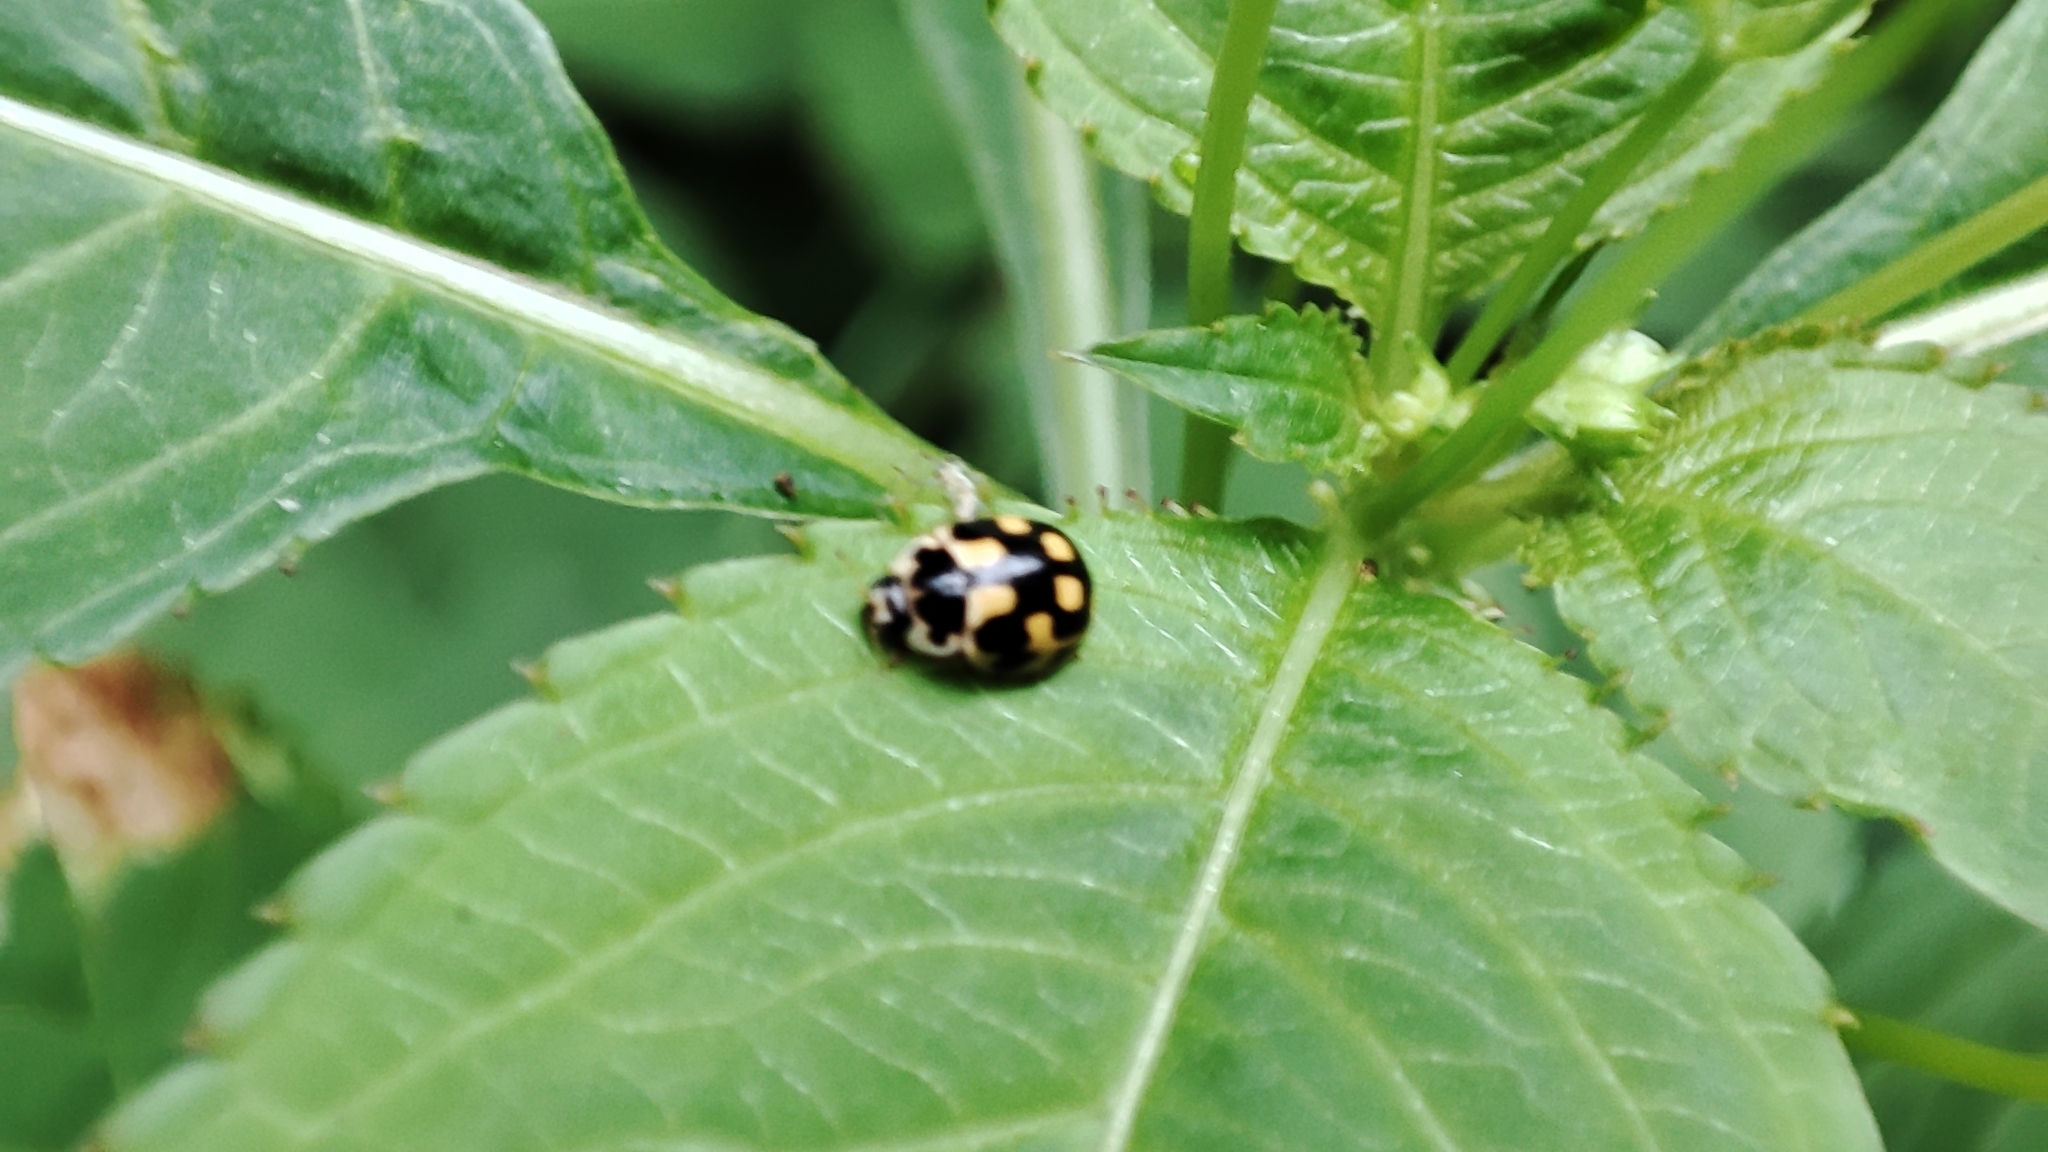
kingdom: Animalia
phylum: Arthropoda
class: Insecta
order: Coleoptera
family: Coccinellidae
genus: Propylaea
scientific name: Propylaea quatuordecimpunctata
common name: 14-spotted ladybird beetle
